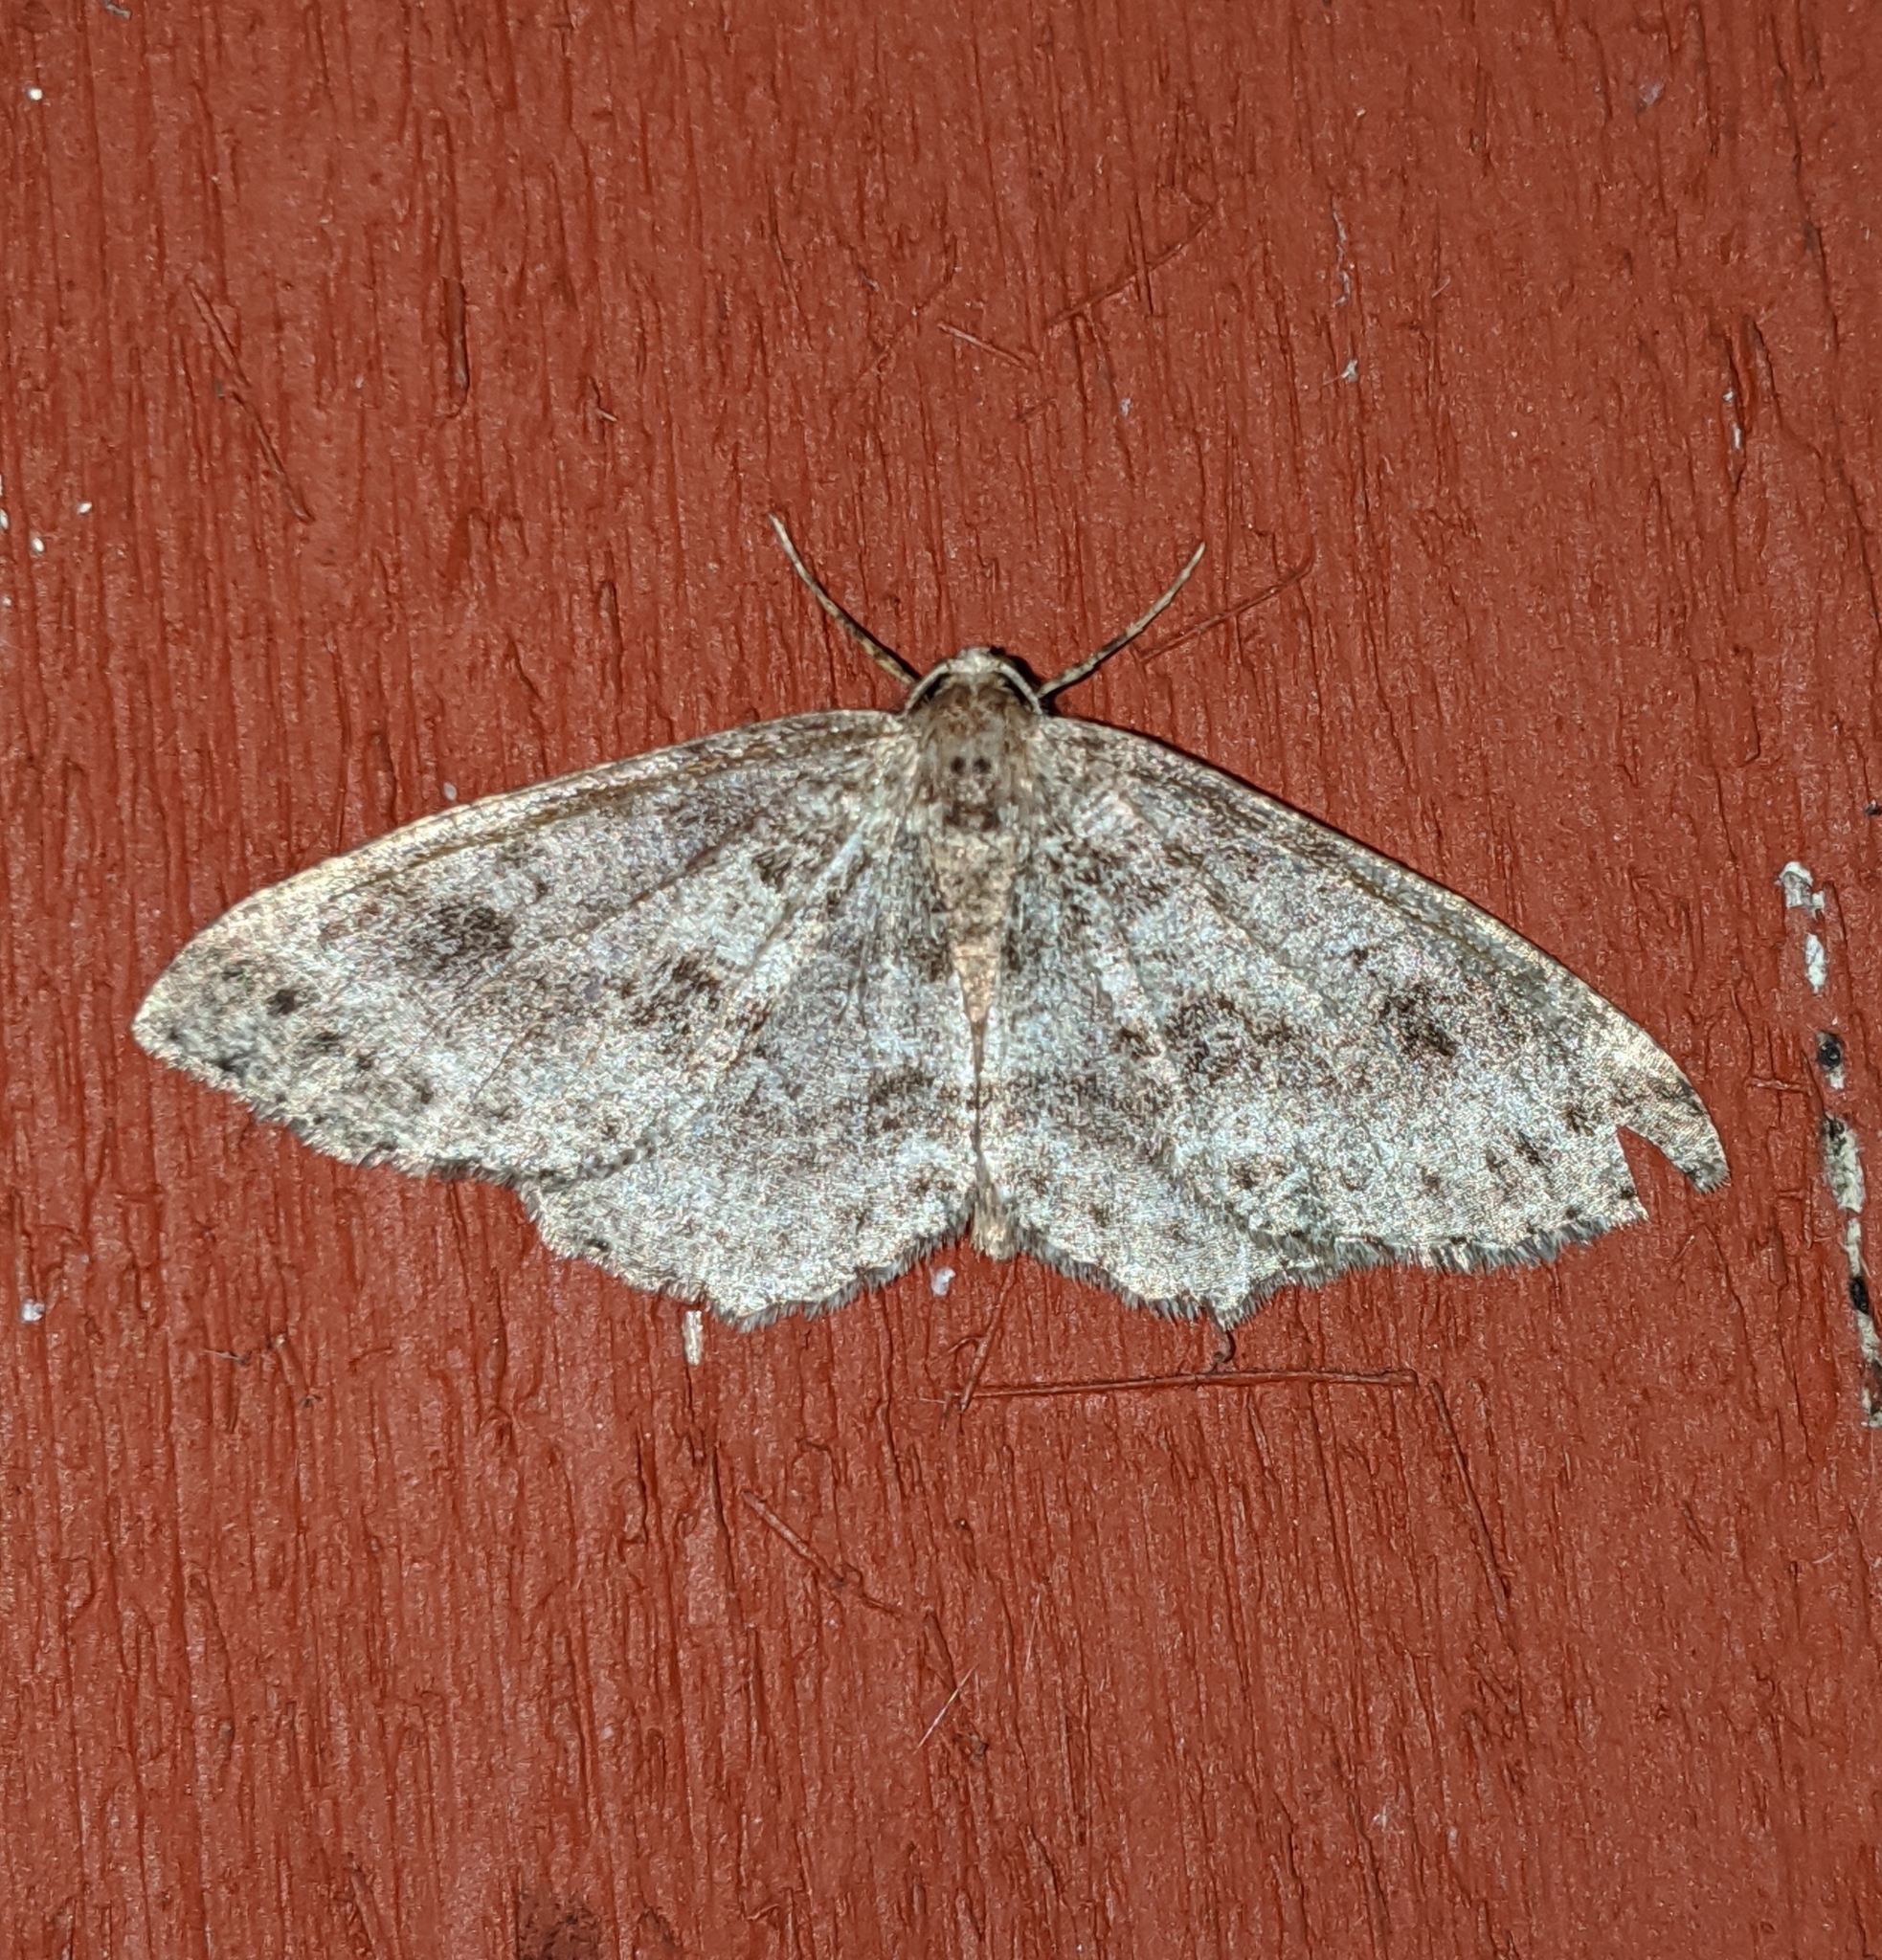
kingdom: Animalia
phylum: Arthropoda
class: Insecta
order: Lepidoptera
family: Geometridae
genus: Melanolophia
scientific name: Melanolophia imitata
